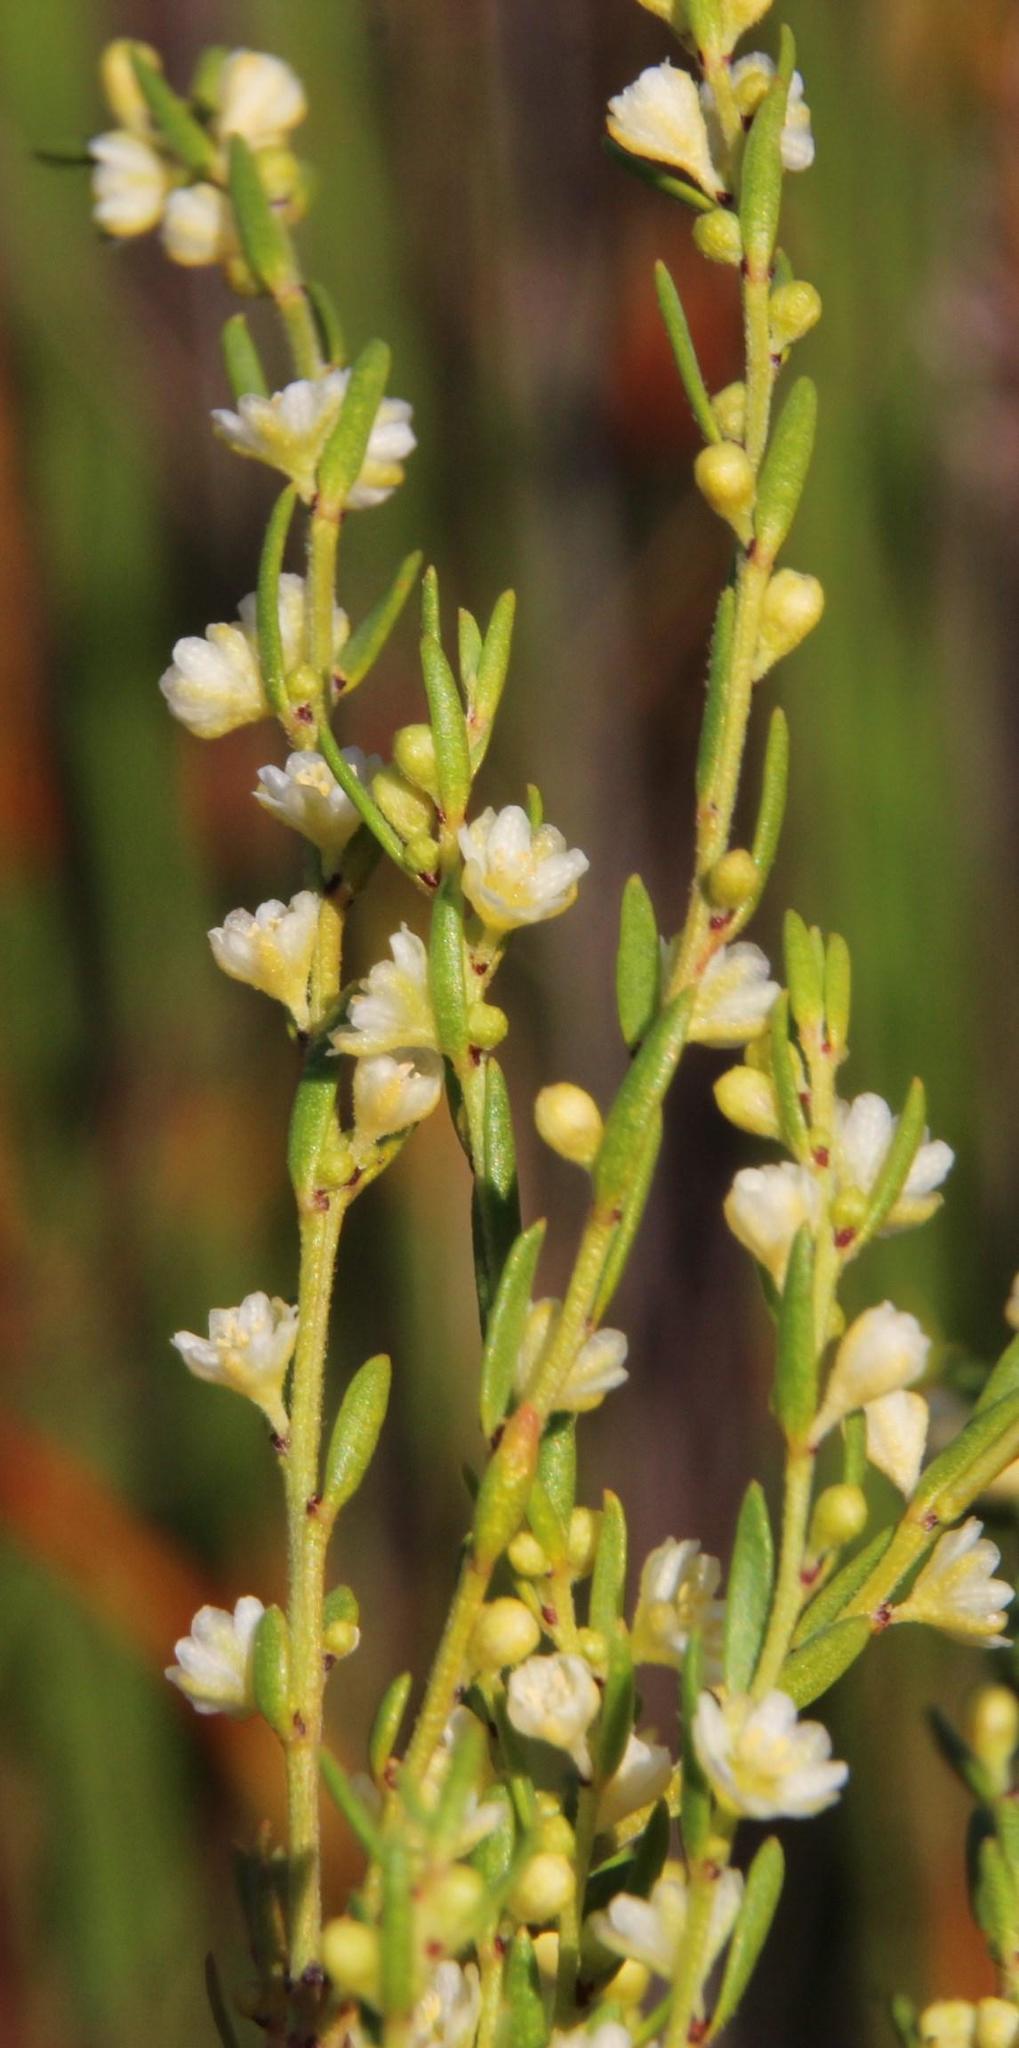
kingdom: Plantae
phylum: Tracheophyta
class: Magnoliopsida
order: Malpighiales
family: Peraceae
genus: Clutia
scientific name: Clutia ericoides
